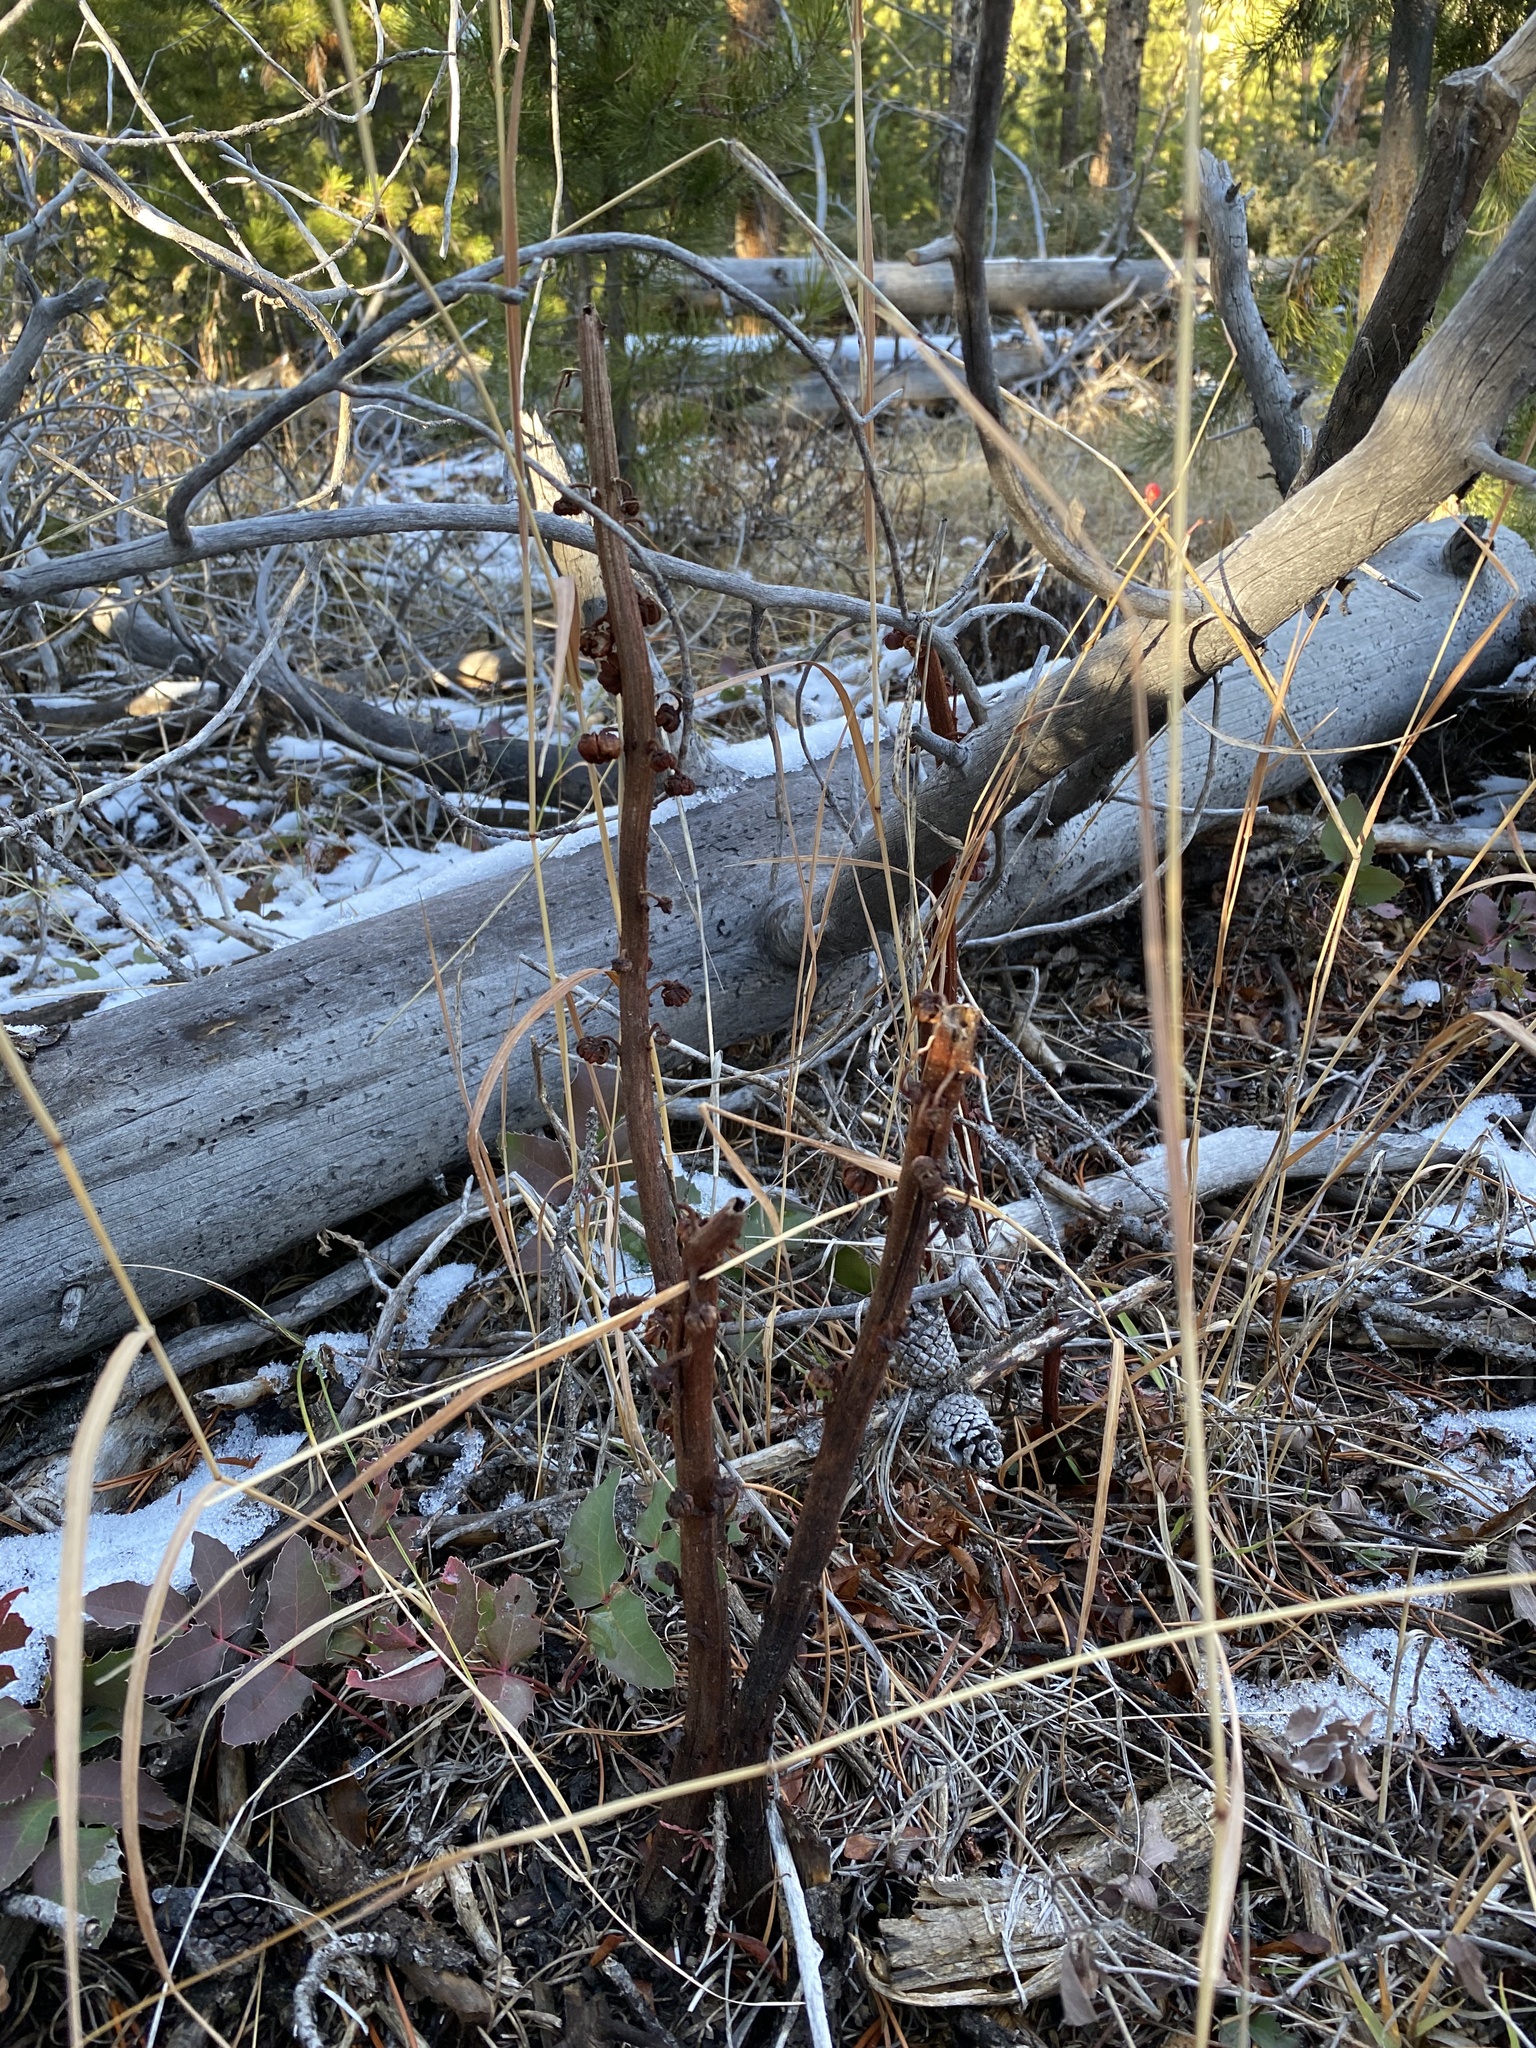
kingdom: Plantae
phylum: Tracheophyta
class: Magnoliopsida
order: Ericales
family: Ericaceae
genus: Pterospora
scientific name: Pterospora andromedea
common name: Giant bird's-nest
